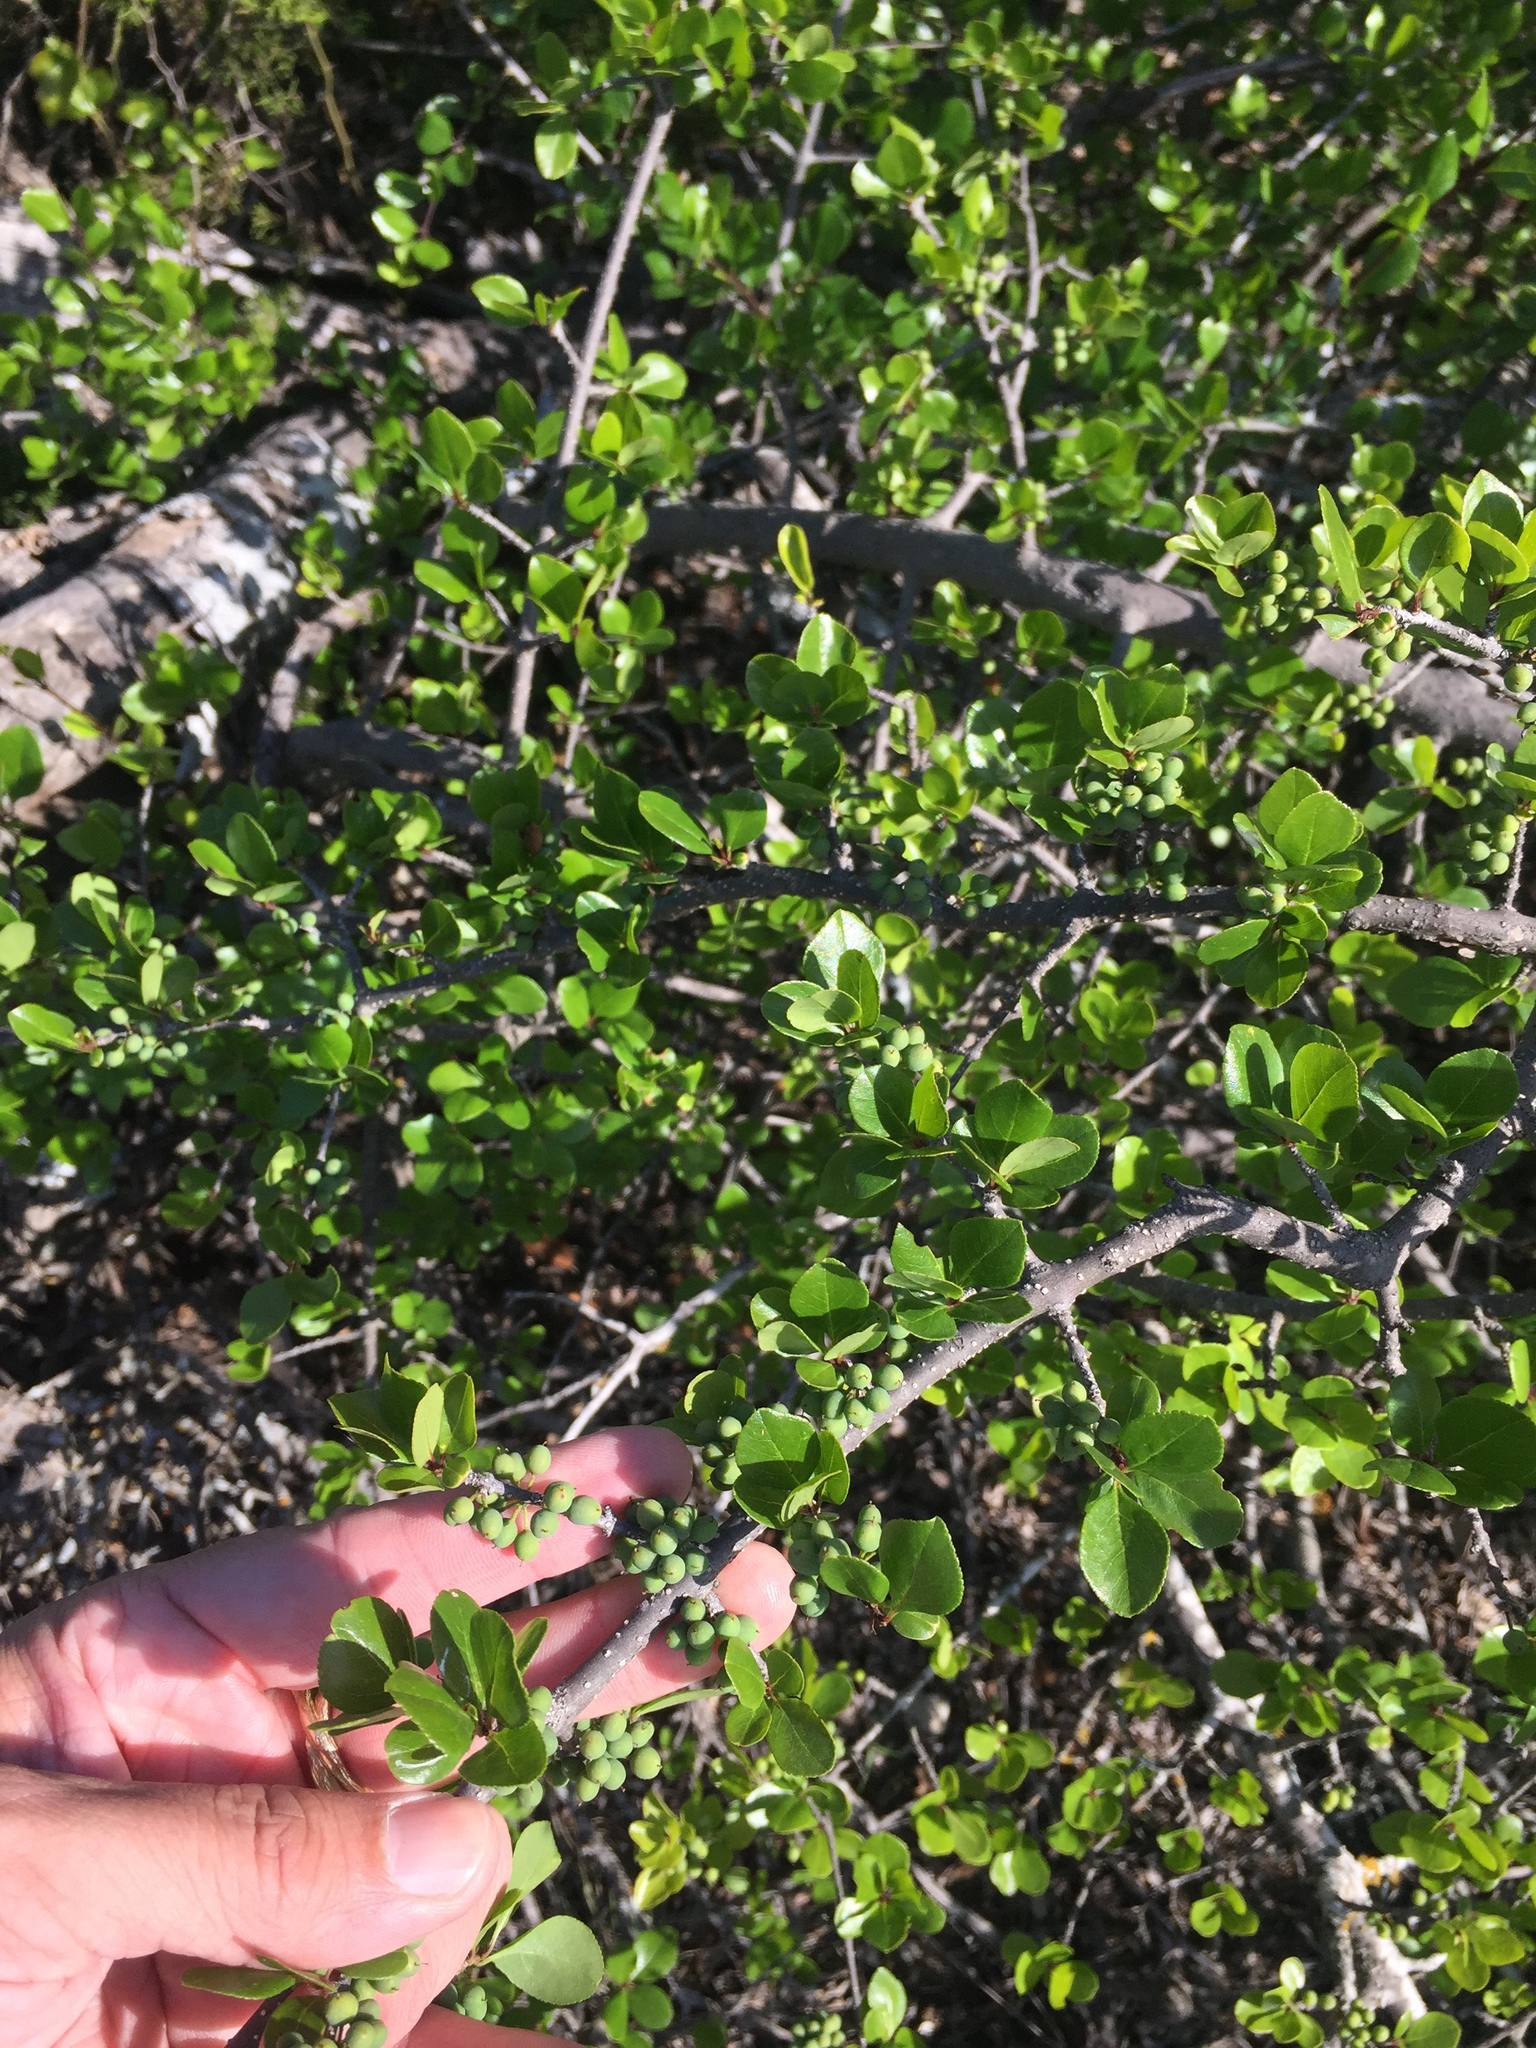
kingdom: Plantae
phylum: Tracheophyta
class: Magnoliopsida
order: Lamiales
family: Oleaceae
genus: Forestiera
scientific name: Forestiera pubescens
